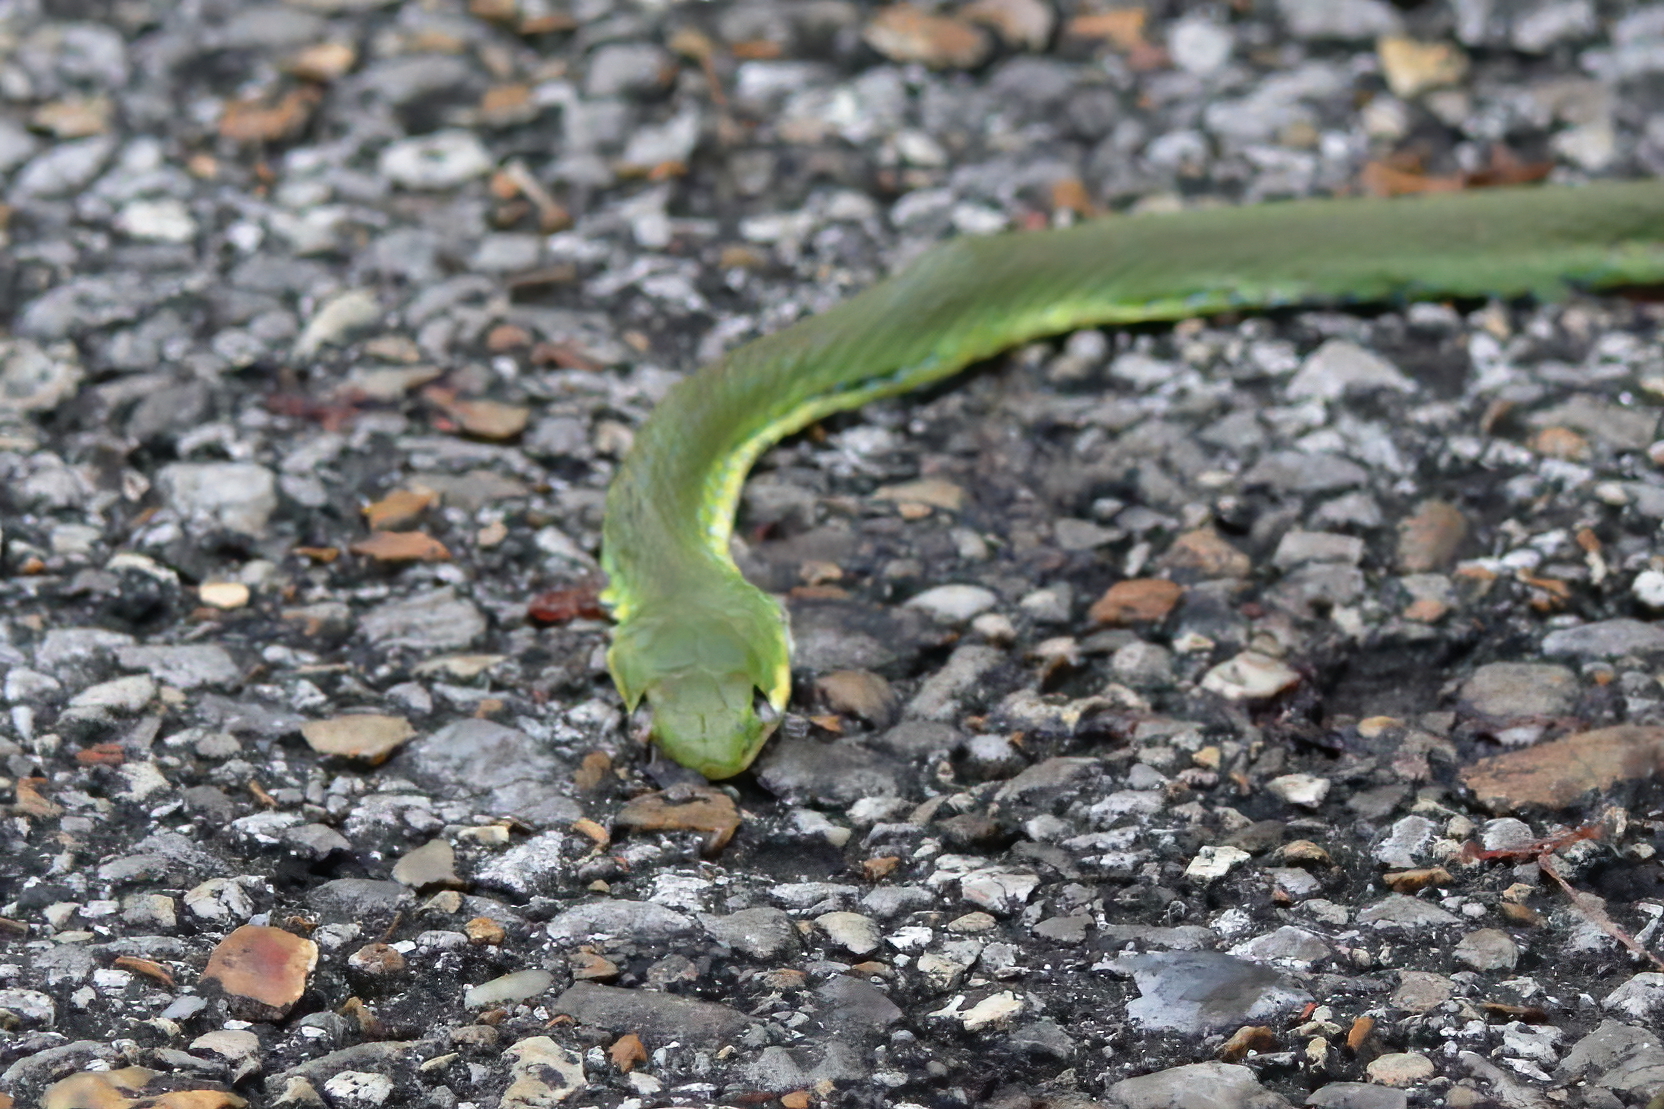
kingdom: Animalia
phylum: Chordata
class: Squamata
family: Colubridae
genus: Opheodrys
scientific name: Opheodrys aestivus
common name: Rough greensnake
